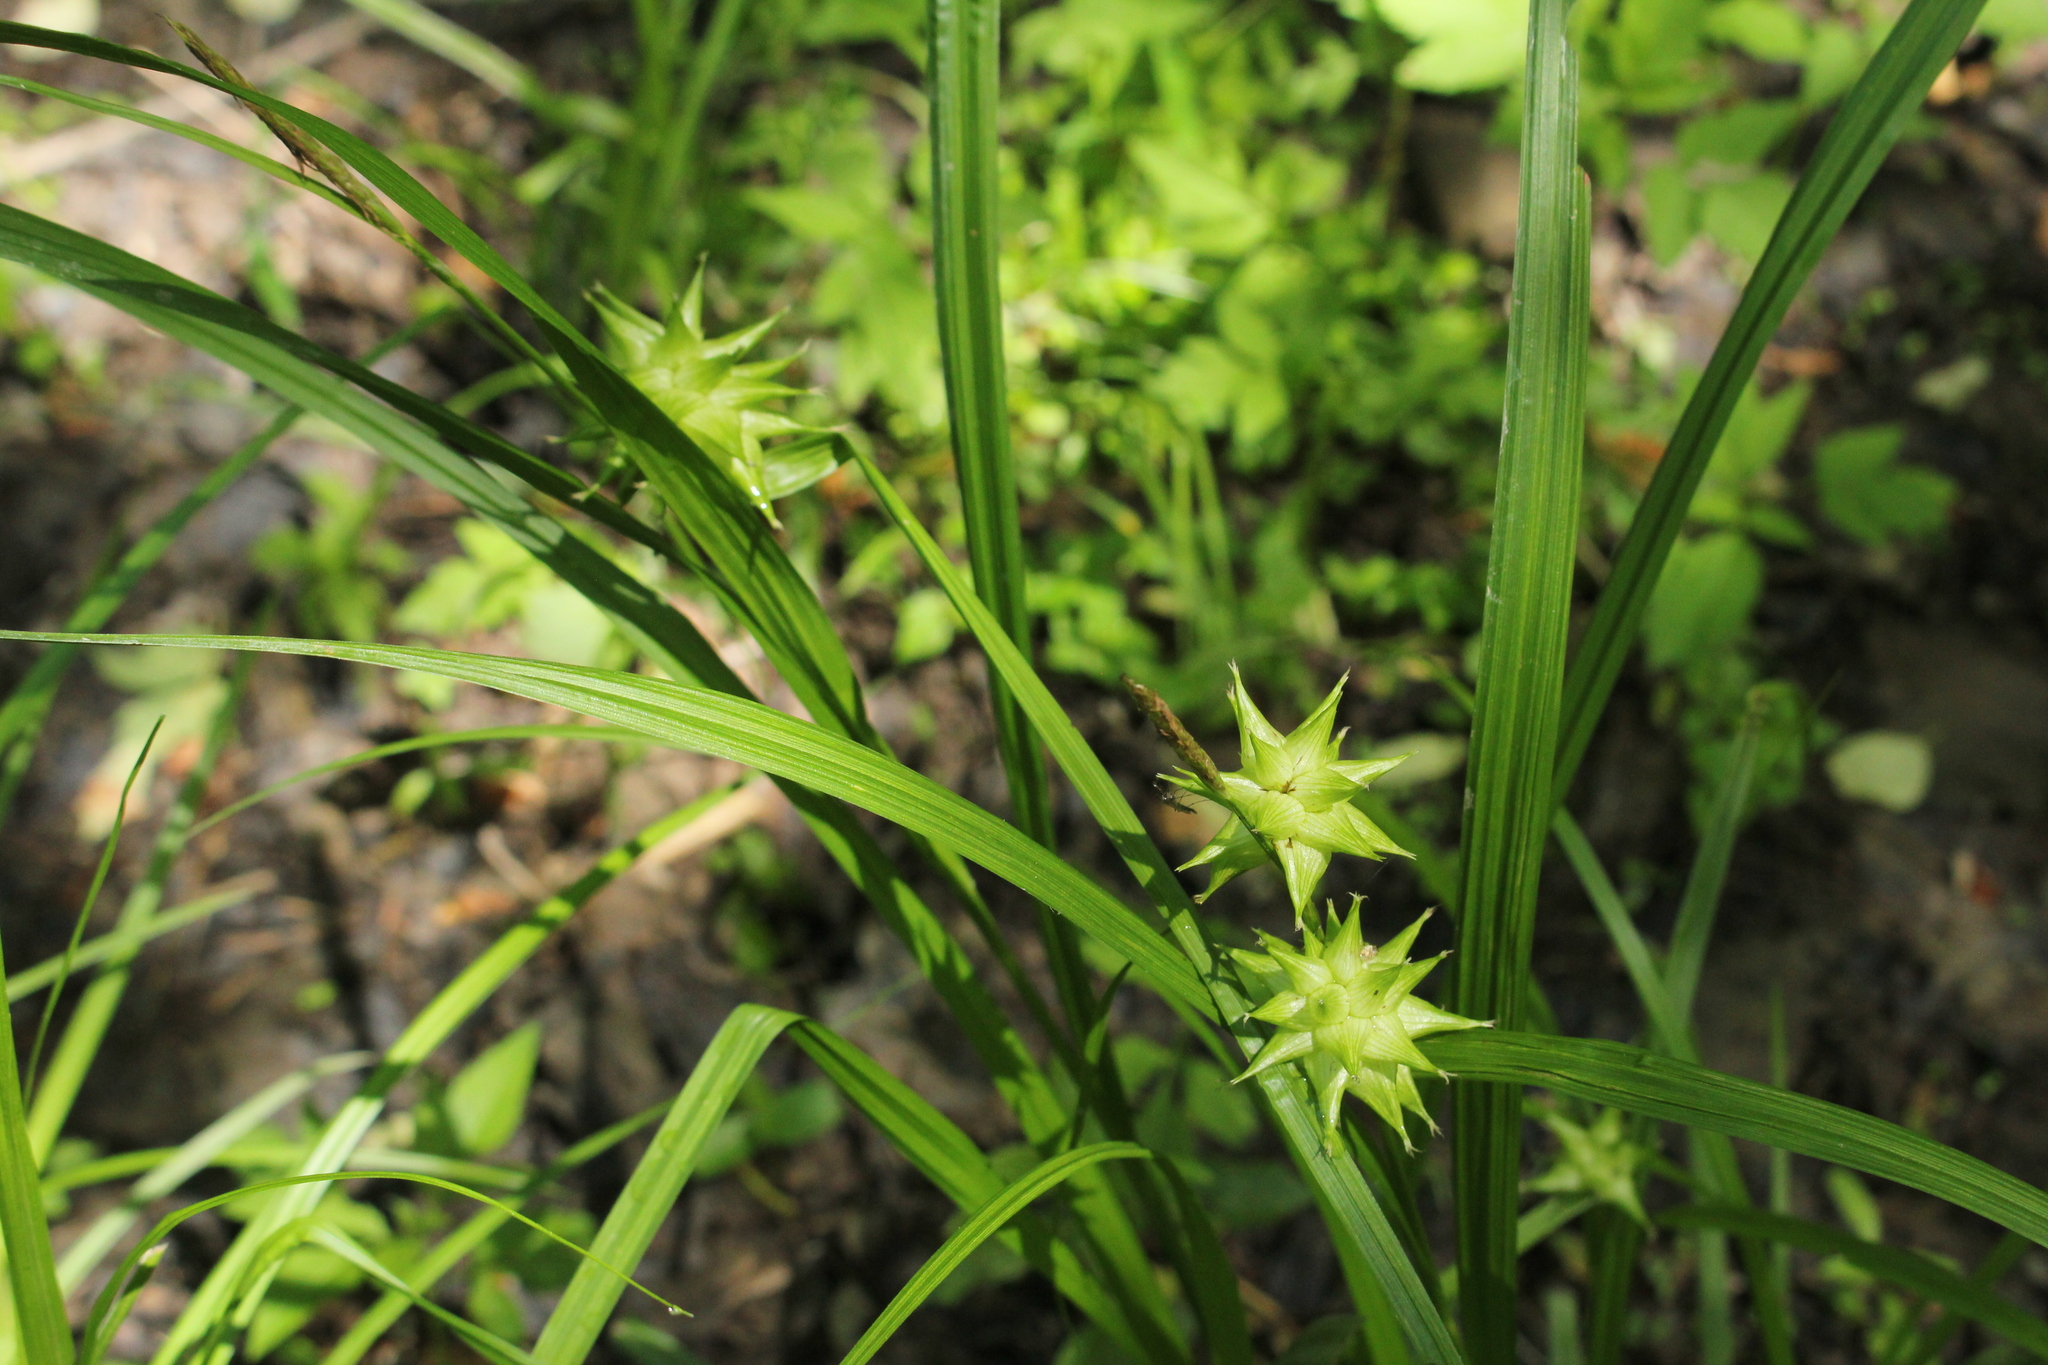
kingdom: Plantae
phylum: Tracheophyta
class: Liliopsida
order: Poales
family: Cyperaceae
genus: Carex
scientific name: Carex grayi
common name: Asa gray's sedge
